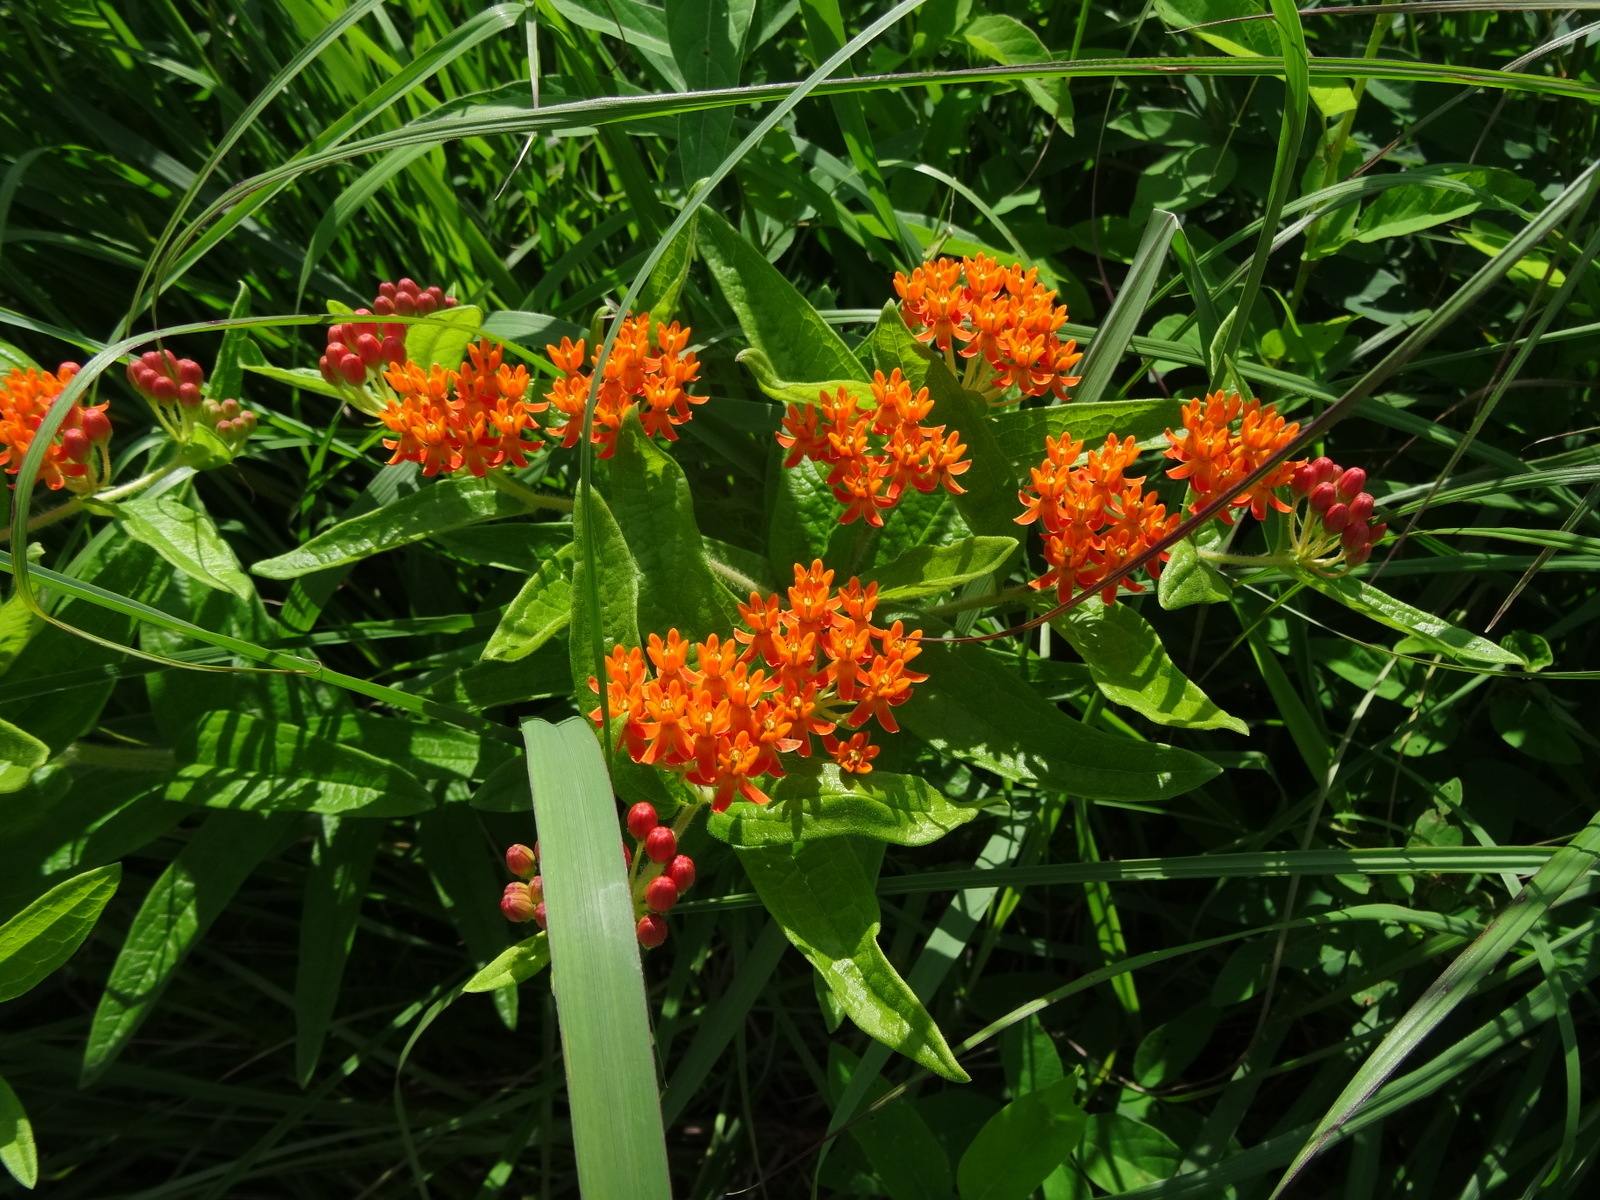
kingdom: Plantae
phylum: Tracheophyta
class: Magnoliopsida
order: Gentianales
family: Apocynaceae
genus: Asclepias
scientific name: Asclepias tuberosa
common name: Butterfly milkweed
